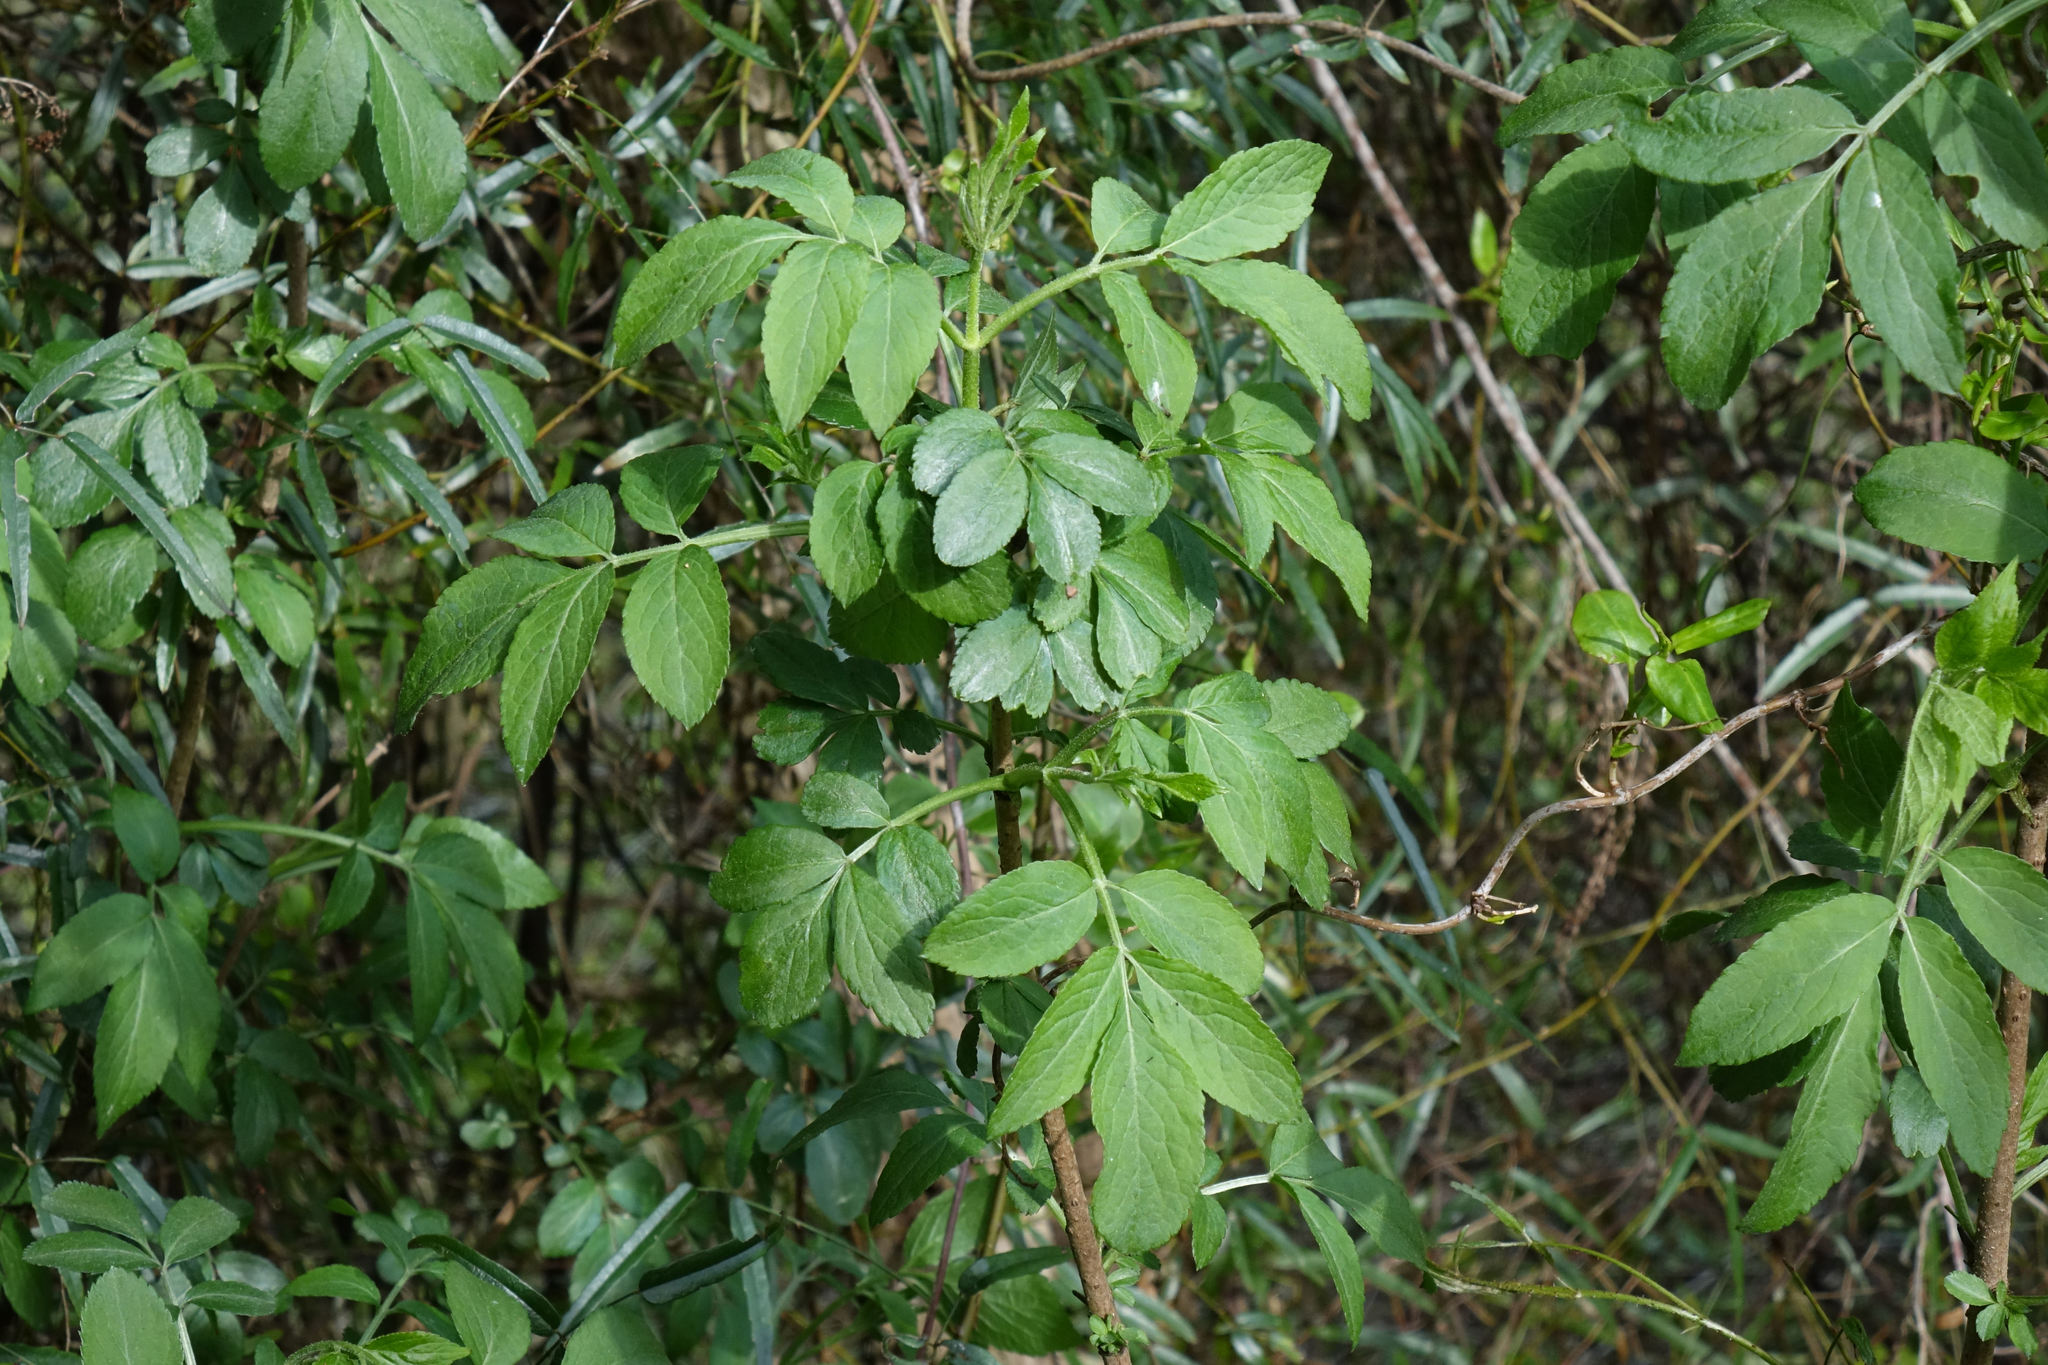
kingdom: Plantae
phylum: Tracheophyta
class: Magnoliopsida
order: Dipsacales
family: Viburnaceae
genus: Sambucus
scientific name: Sambucus nigra
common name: Elder
